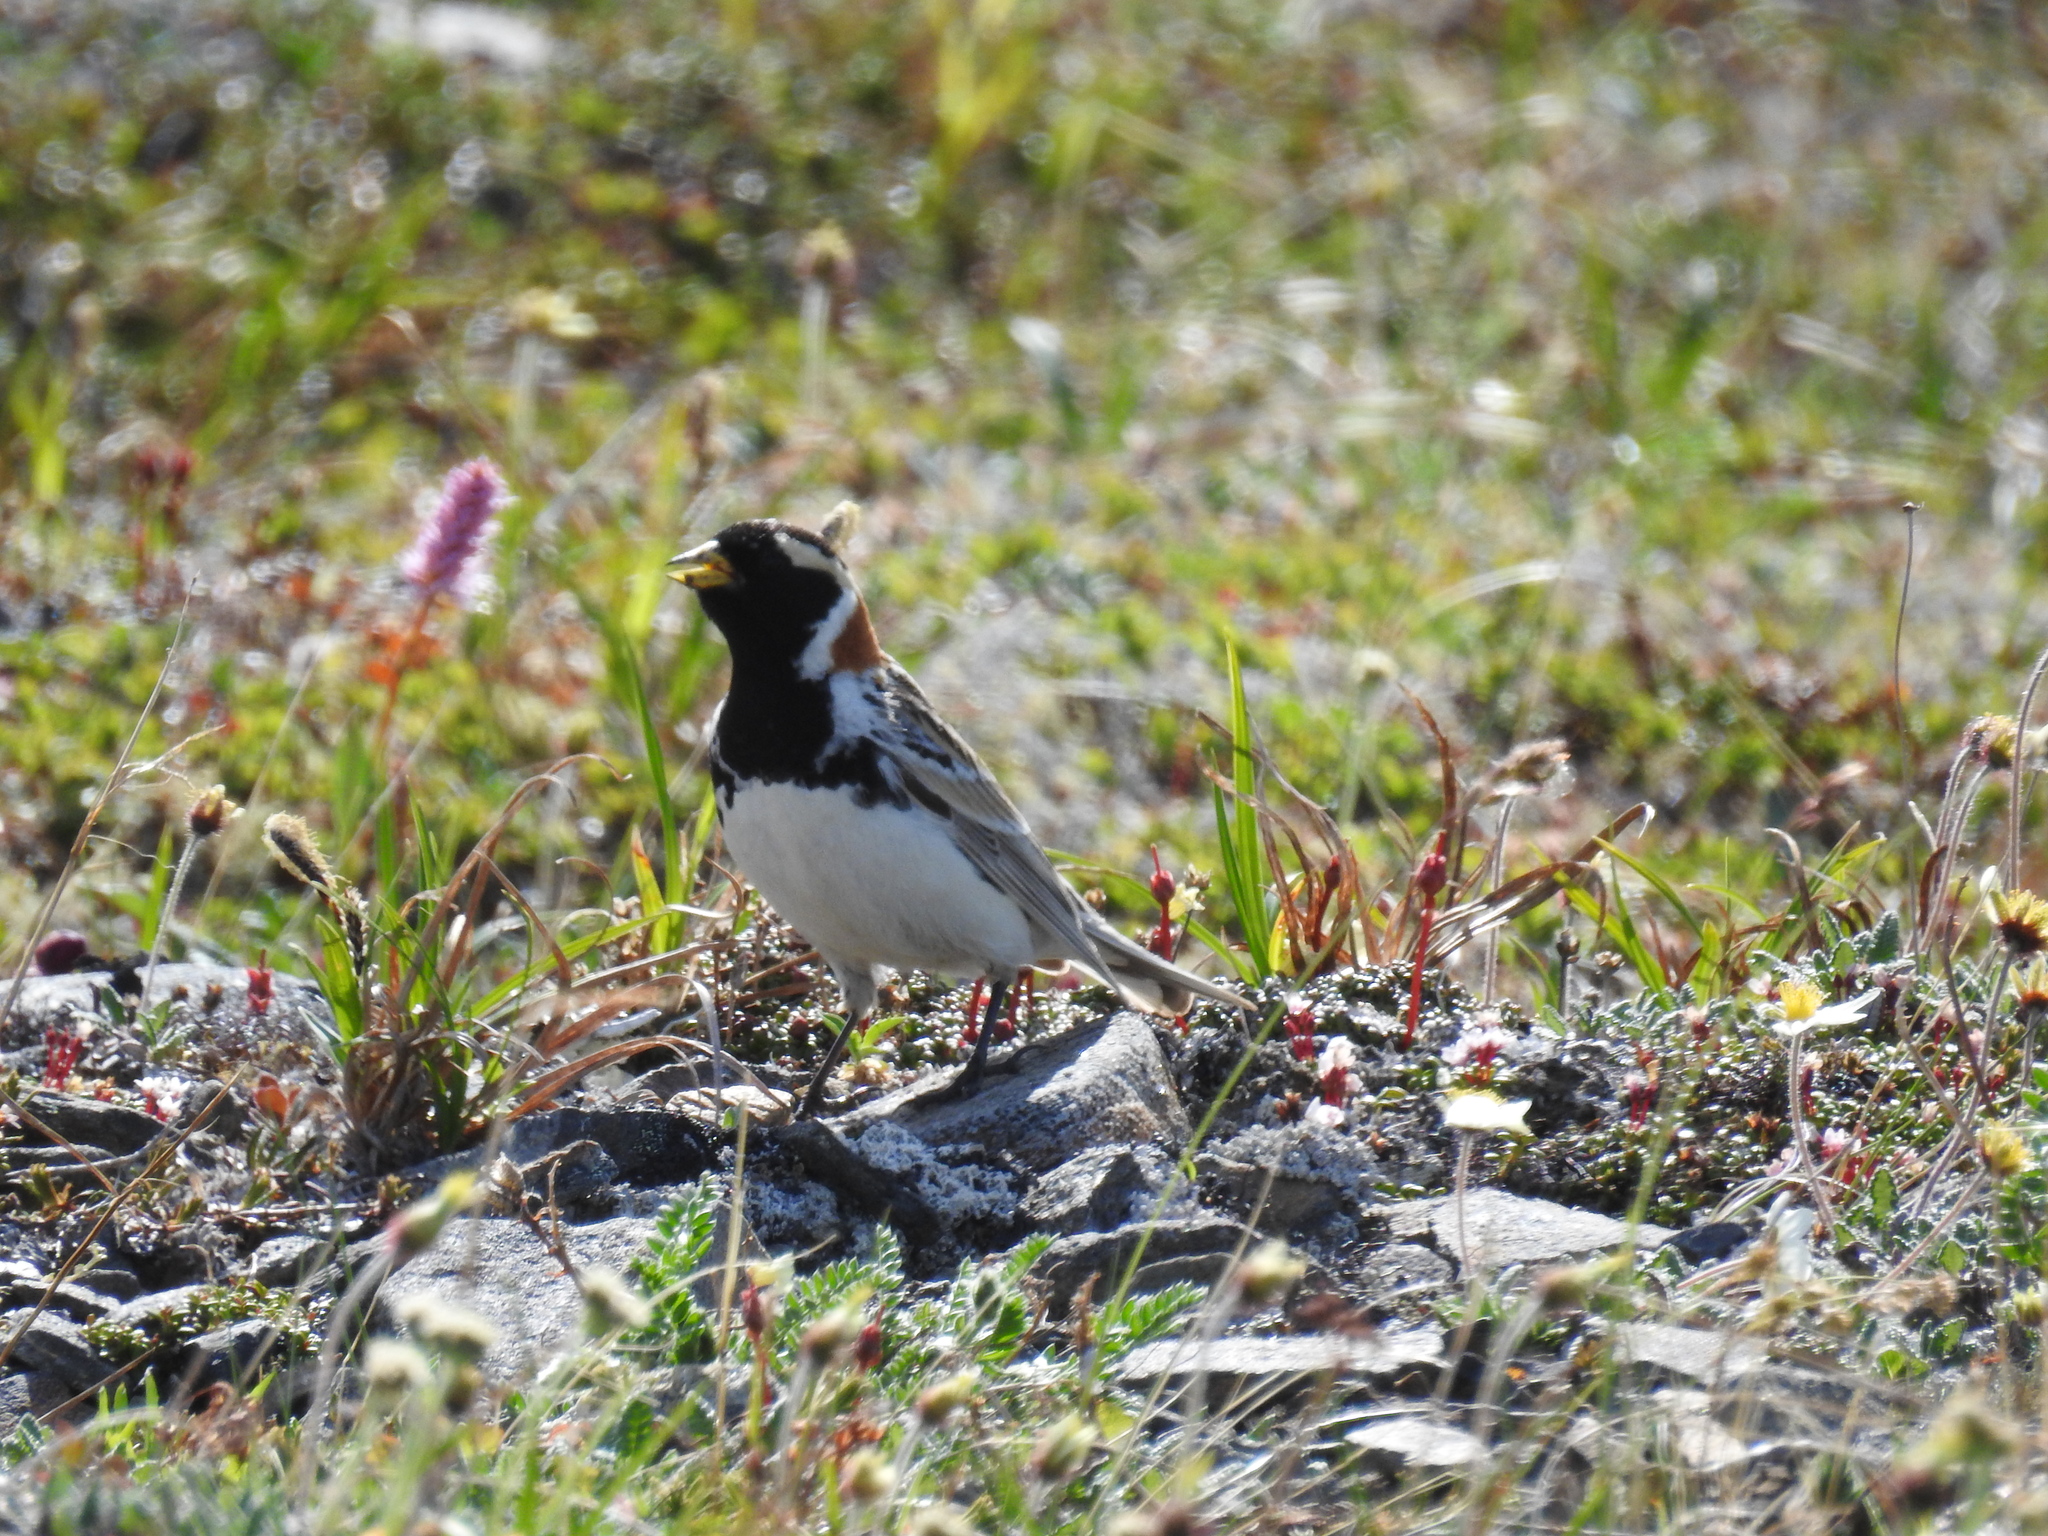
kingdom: Animalia
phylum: Chordata
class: Aves
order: Passeriformes
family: Calcariidae
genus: Calcarius
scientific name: Calcarius lapponicus
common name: Lapland longspur
